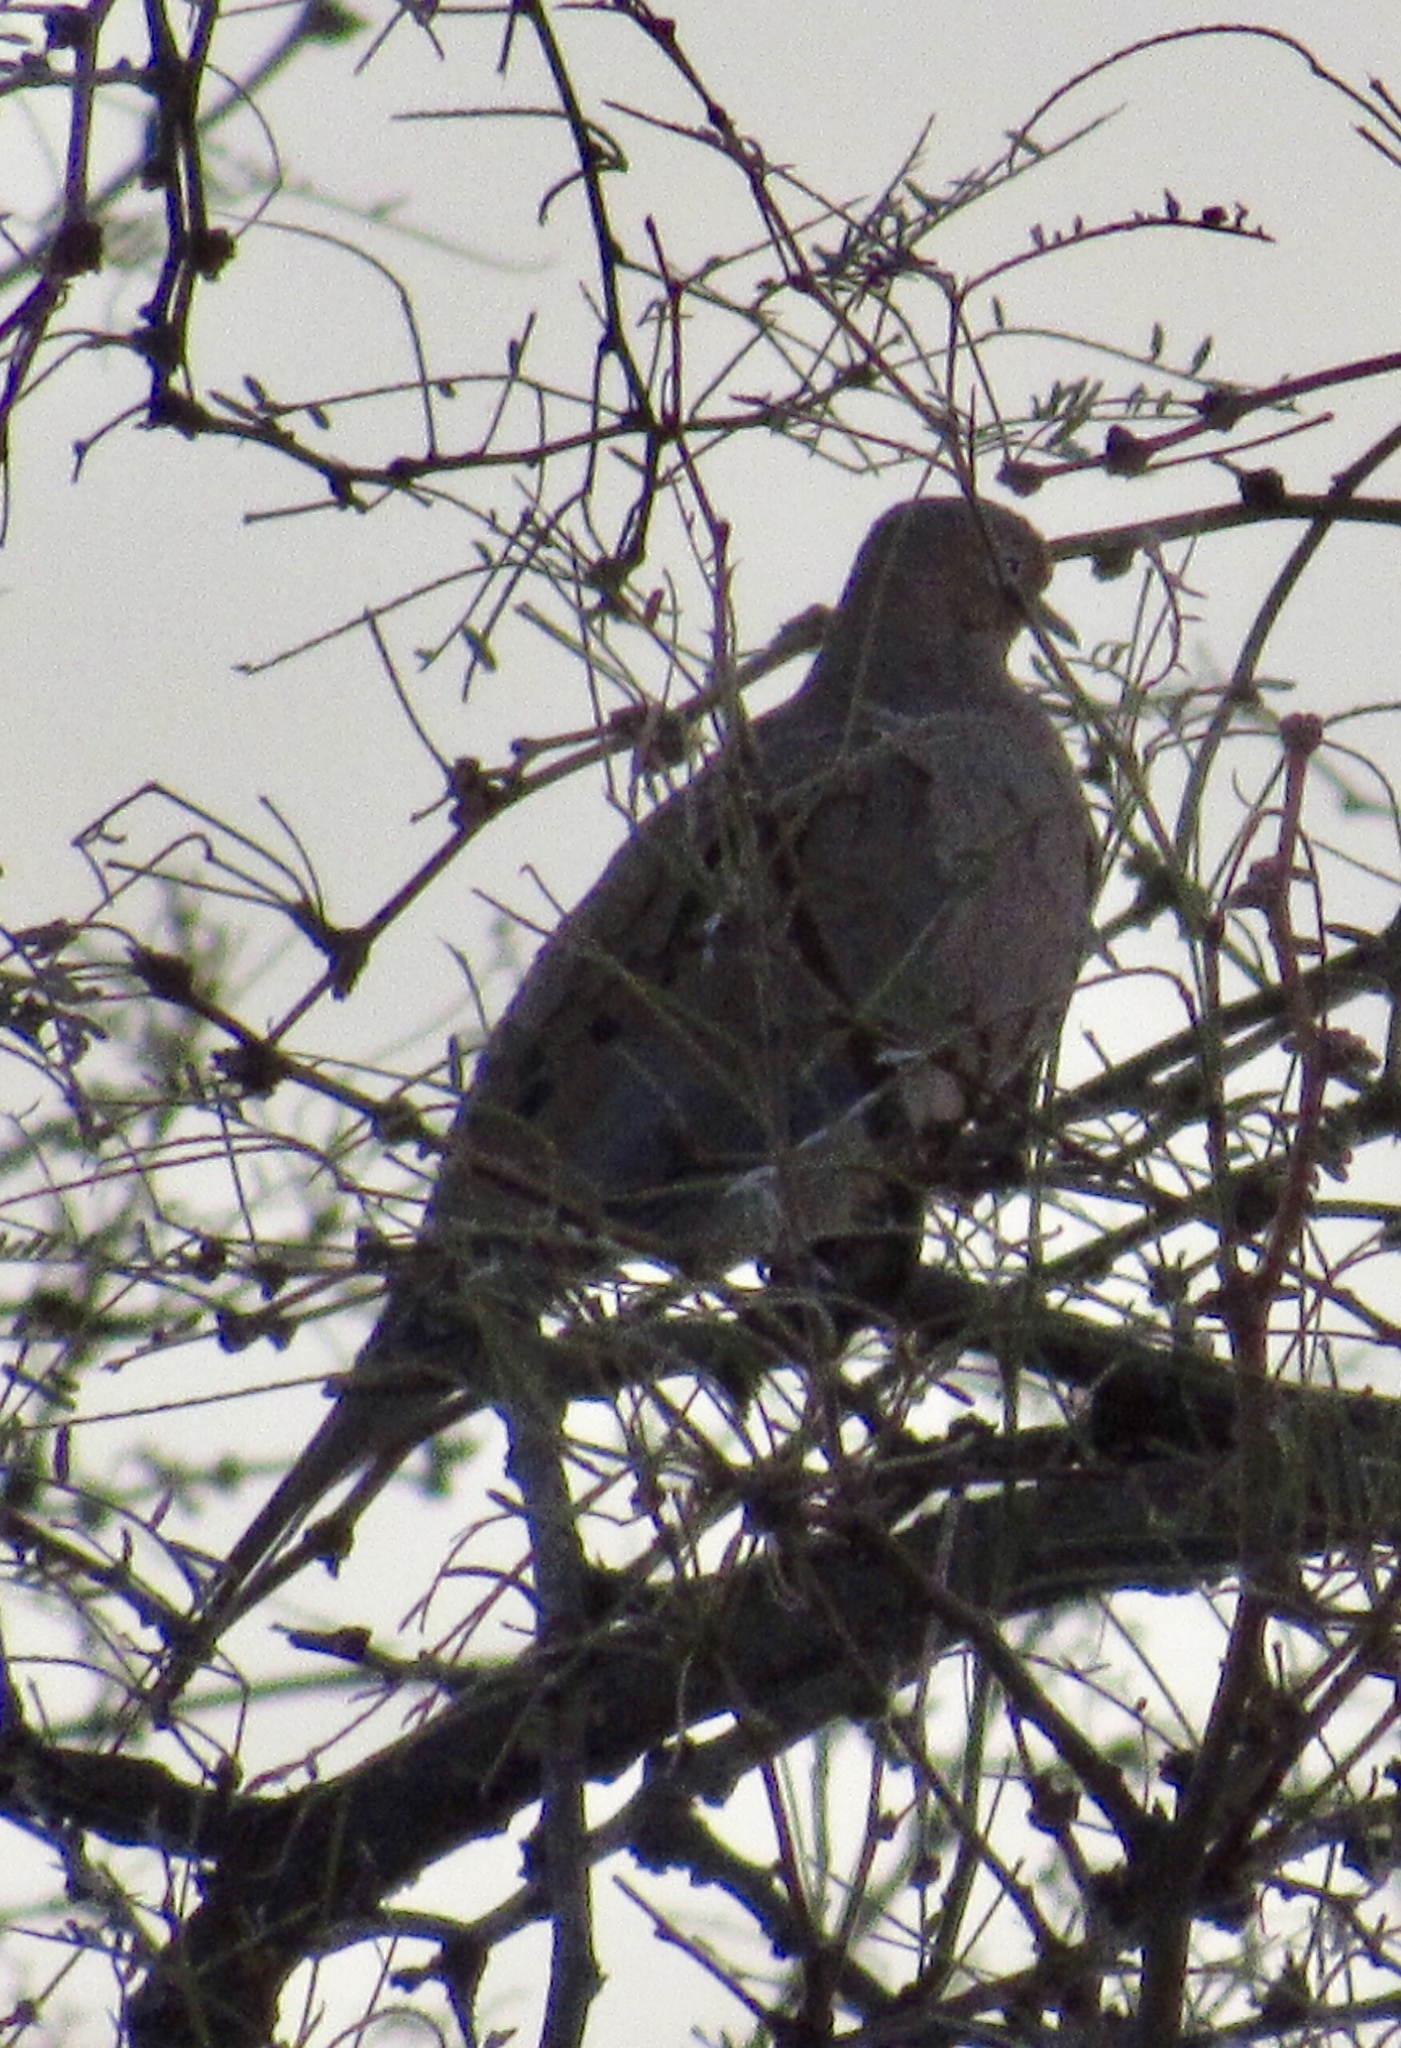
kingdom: Animalia
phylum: Chordata
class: Aves
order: Columbiformes
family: Columbidae
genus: Zenaida
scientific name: Zenaida macroura
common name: Mourning dove
